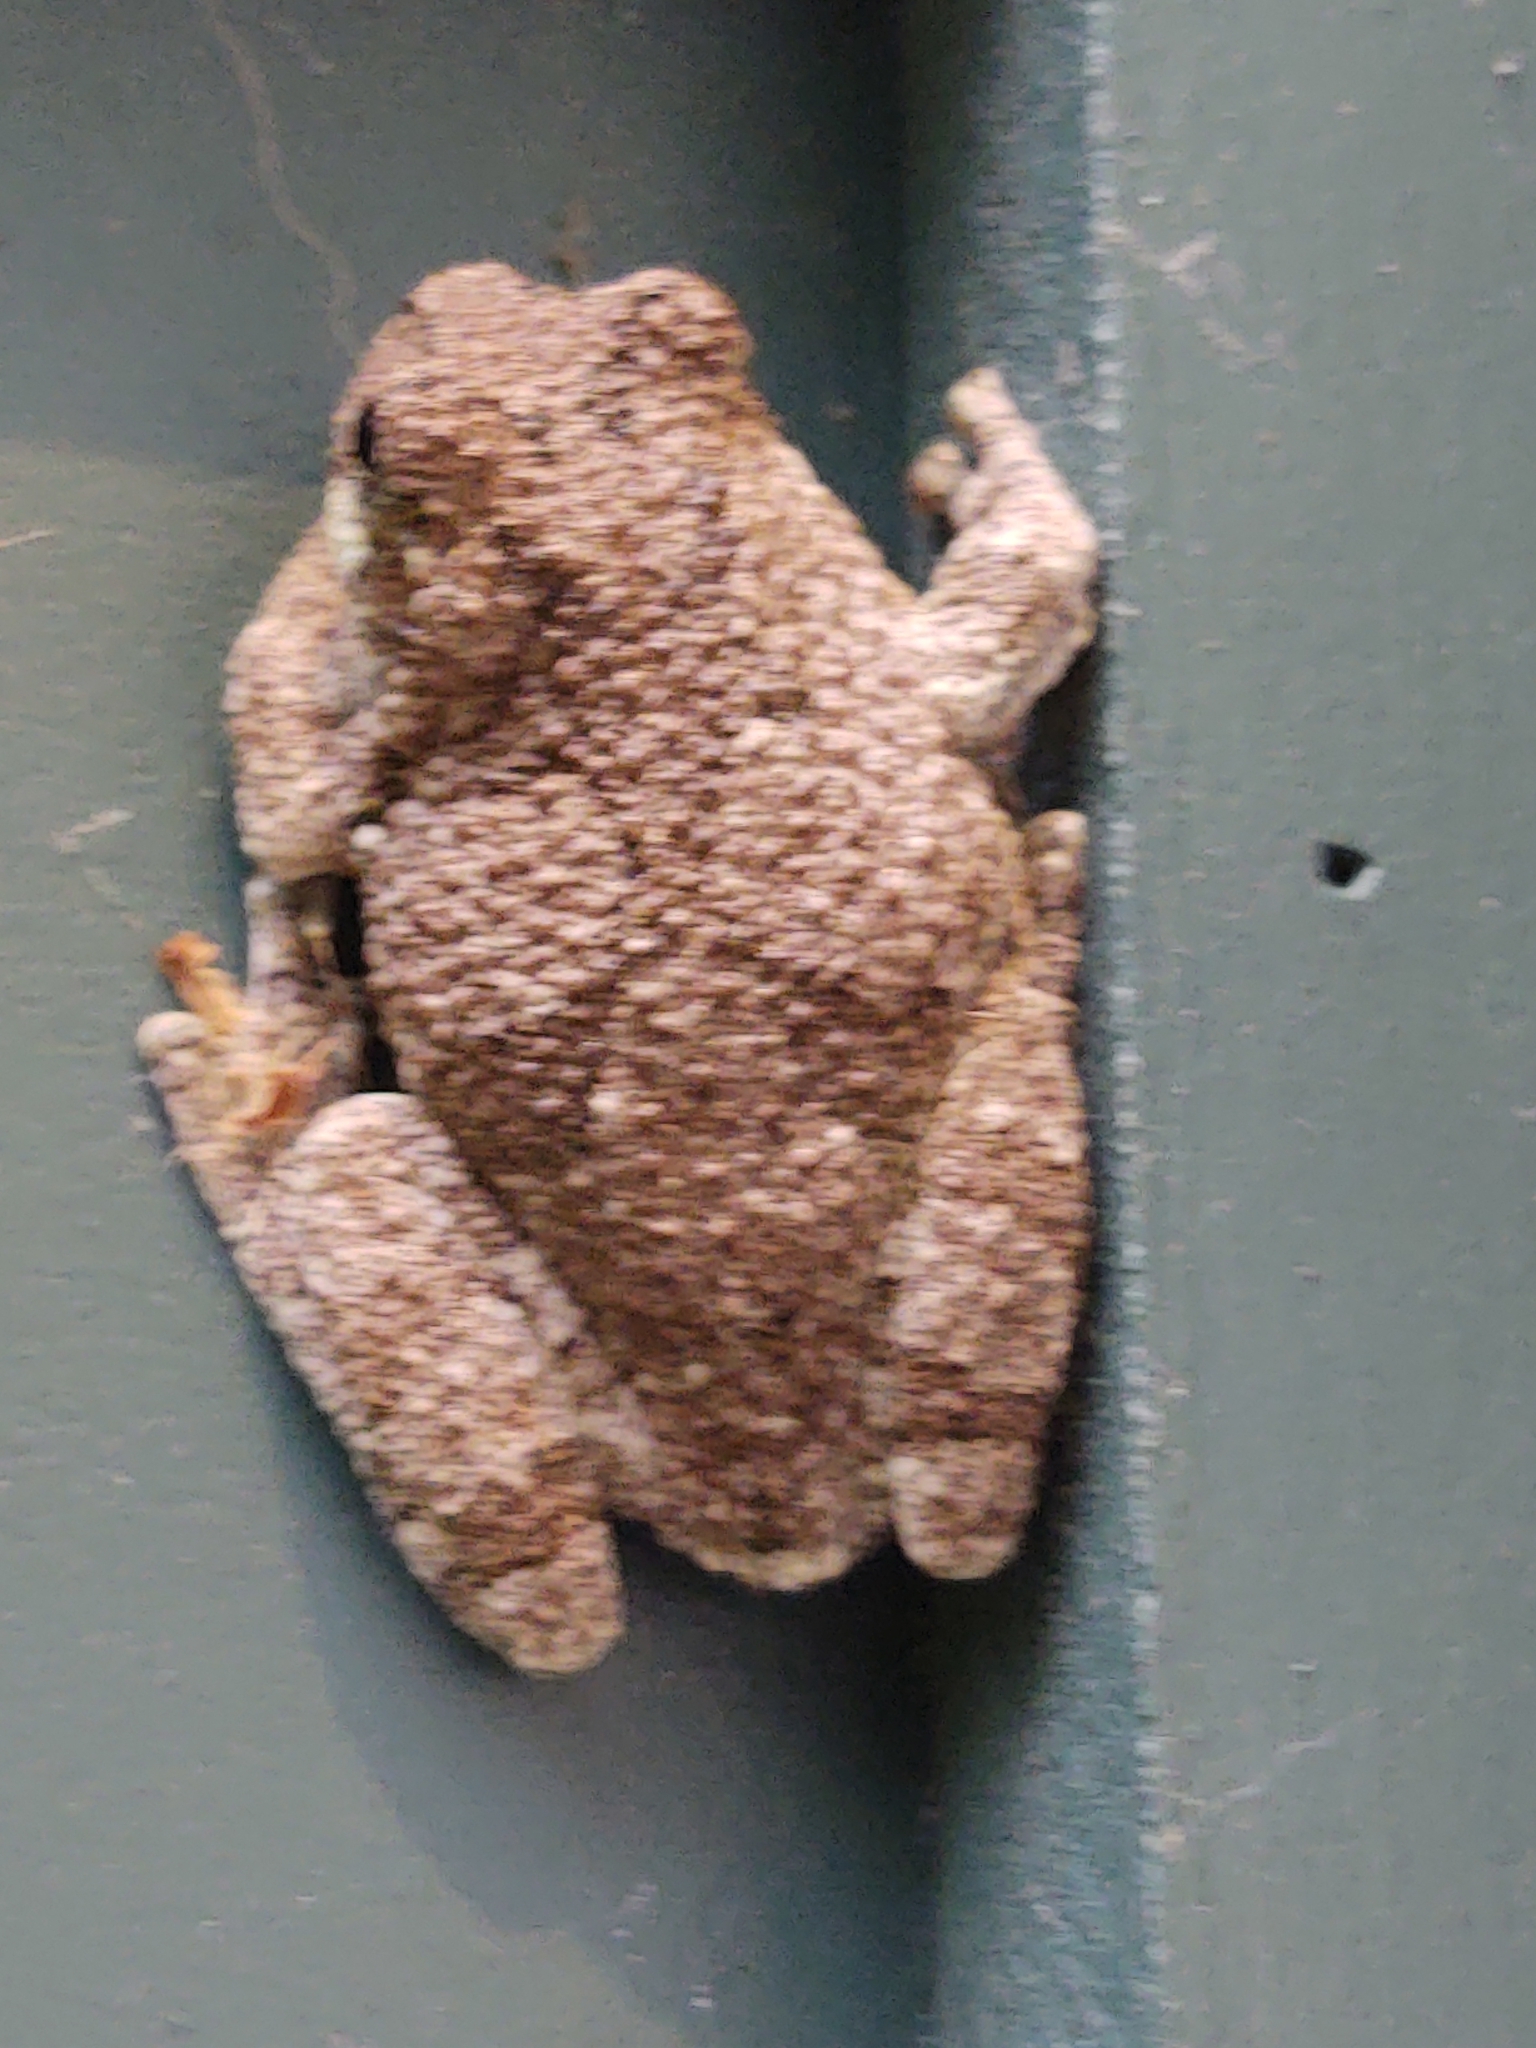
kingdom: Animalia
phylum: Chordata
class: Amphibia
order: Anura
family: Hylidae
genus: Dryophytes
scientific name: Dryophytes versicolor
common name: Gray treefrog
